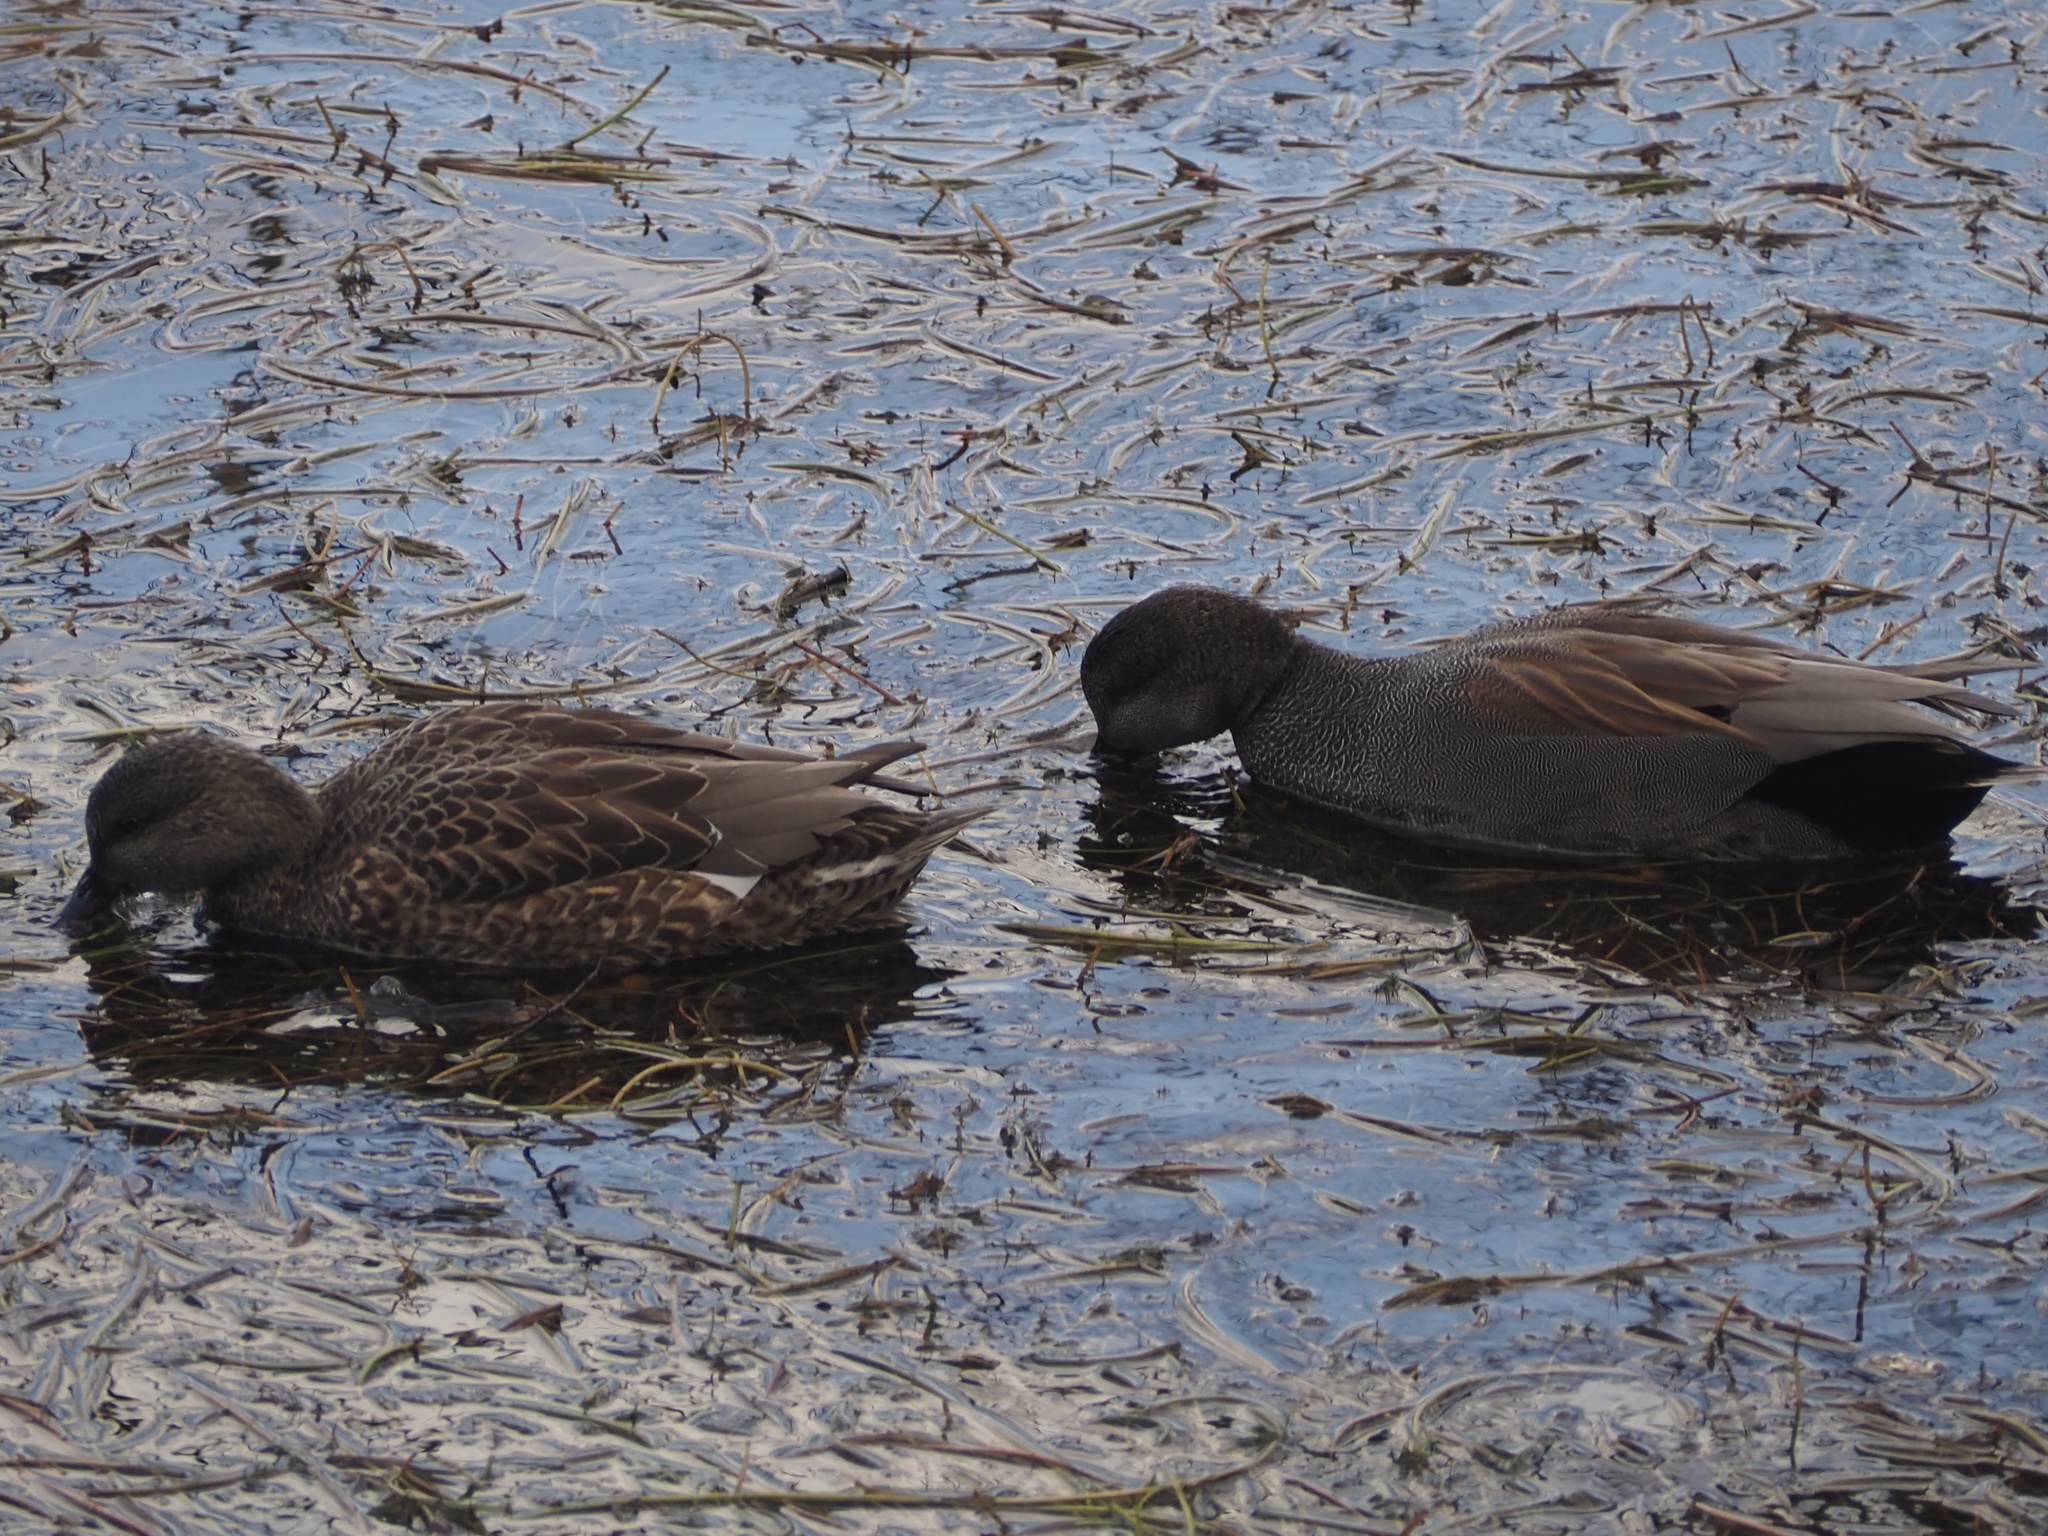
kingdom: Animalia
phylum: Chordata
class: Aves
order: Anseriformes
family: Anatidae
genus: Mareca
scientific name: Mareca strepera
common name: Gadwall
